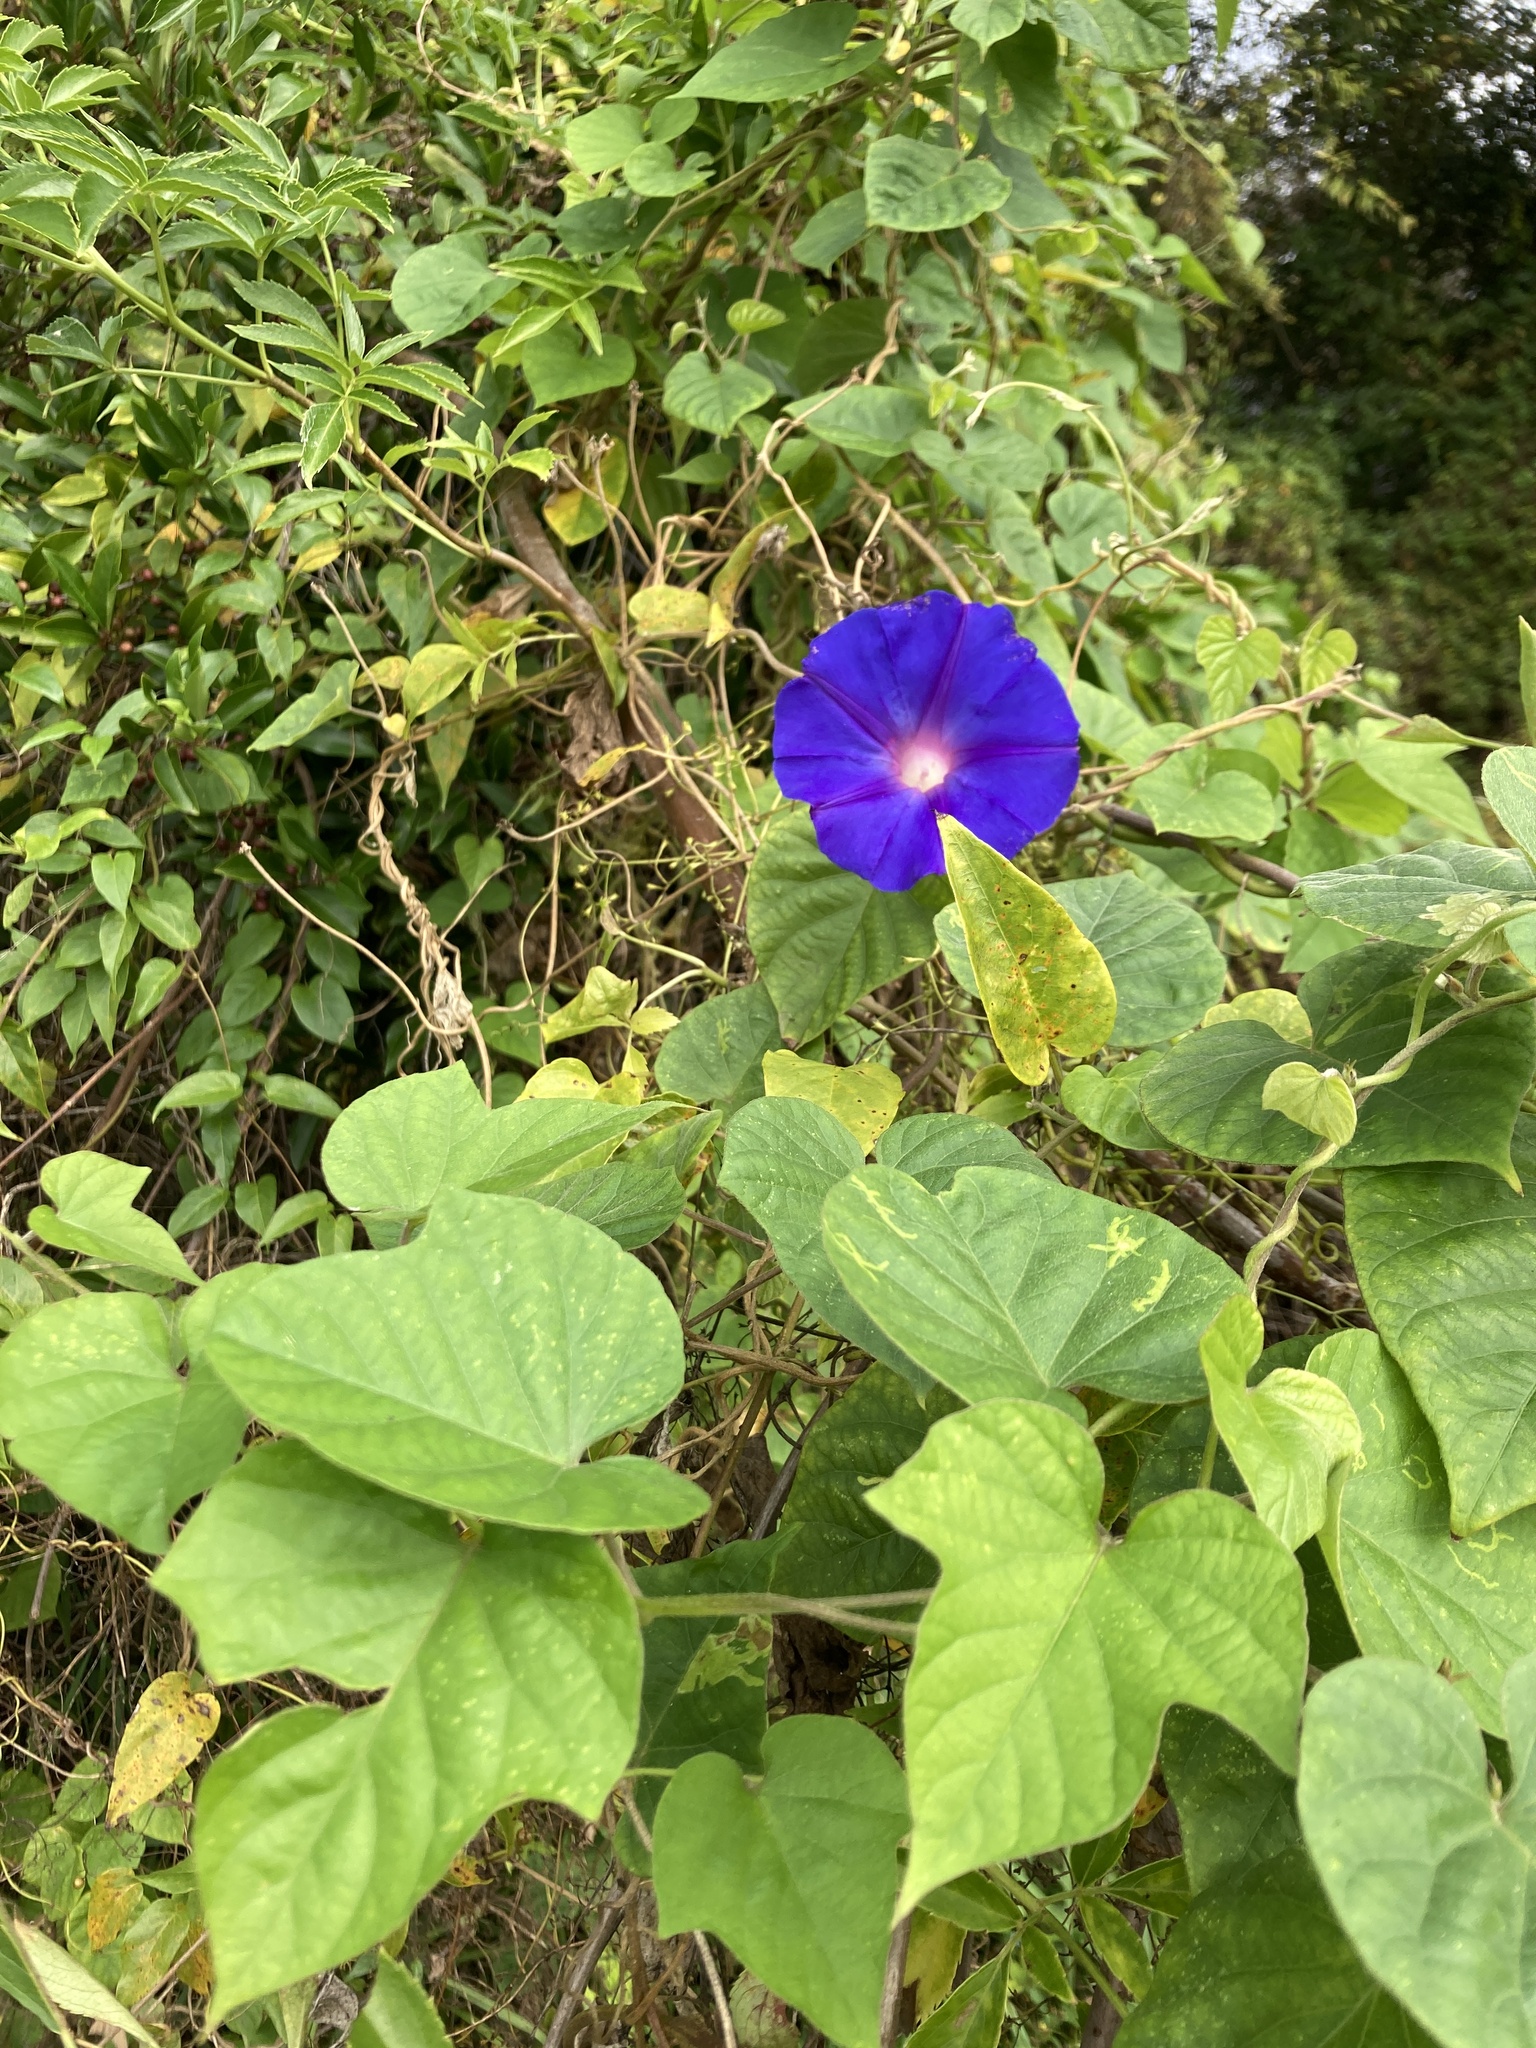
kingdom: Plantae
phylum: Tracheophyta
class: Magnoliopsida
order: Solanales
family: Convolvulaceae
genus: Ipomoea
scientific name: Ipomoea purpurea
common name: Common morning-glory
